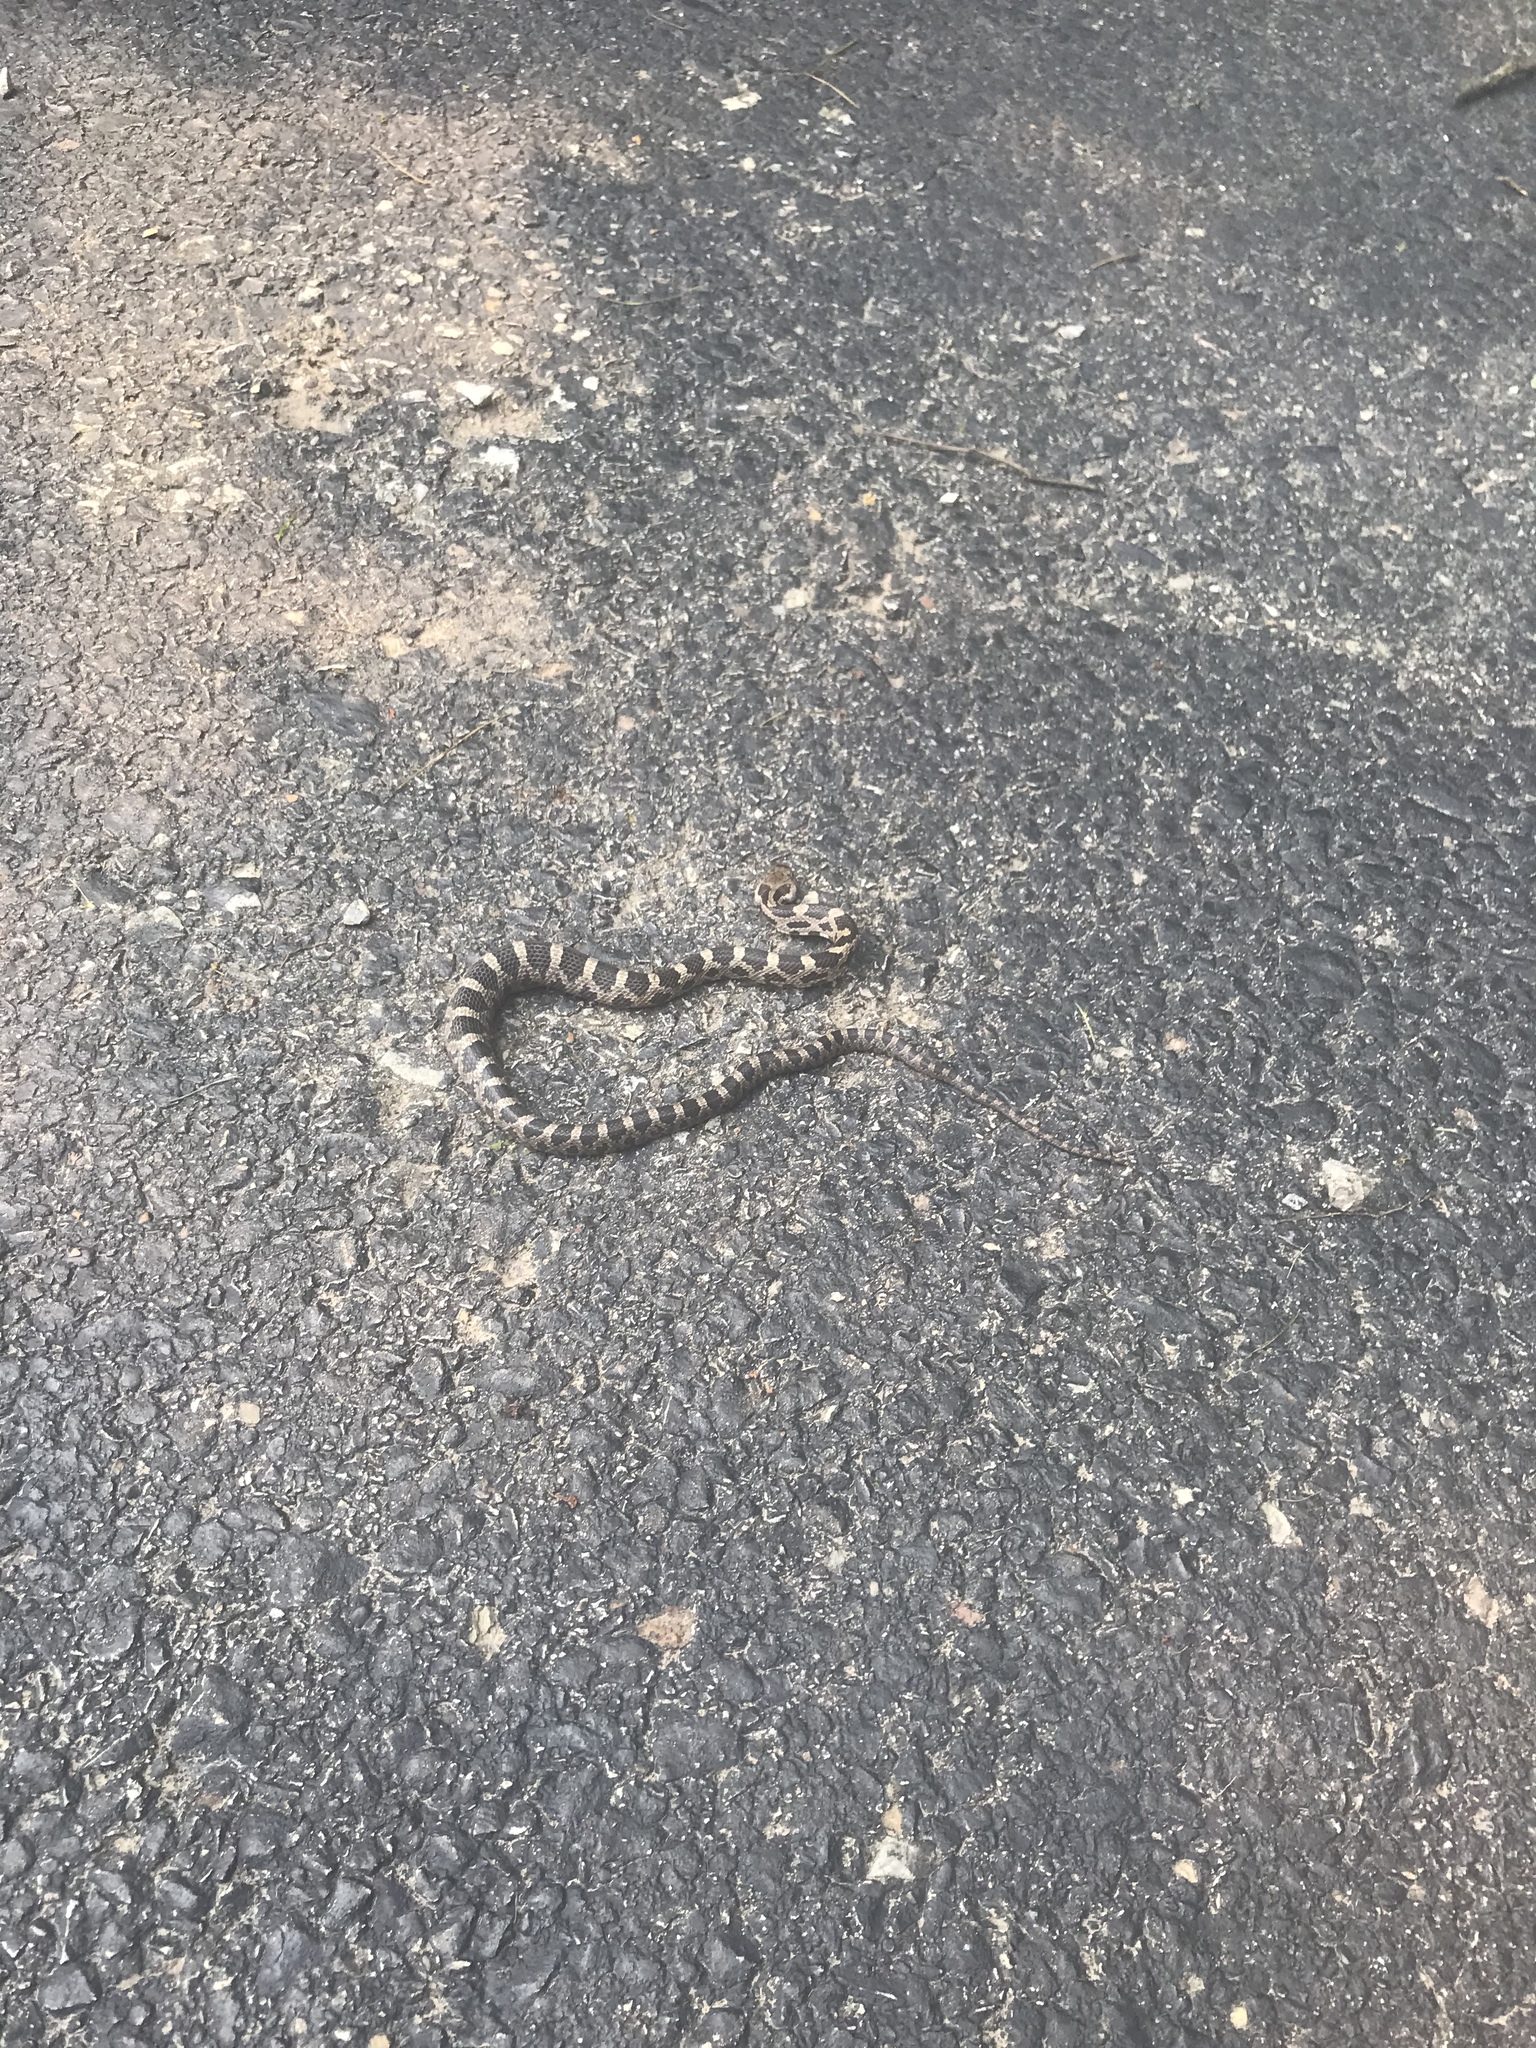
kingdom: Animalia
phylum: Chordata
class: Squamata
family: Colubridae
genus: Pantherophis
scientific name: Pantherophis
